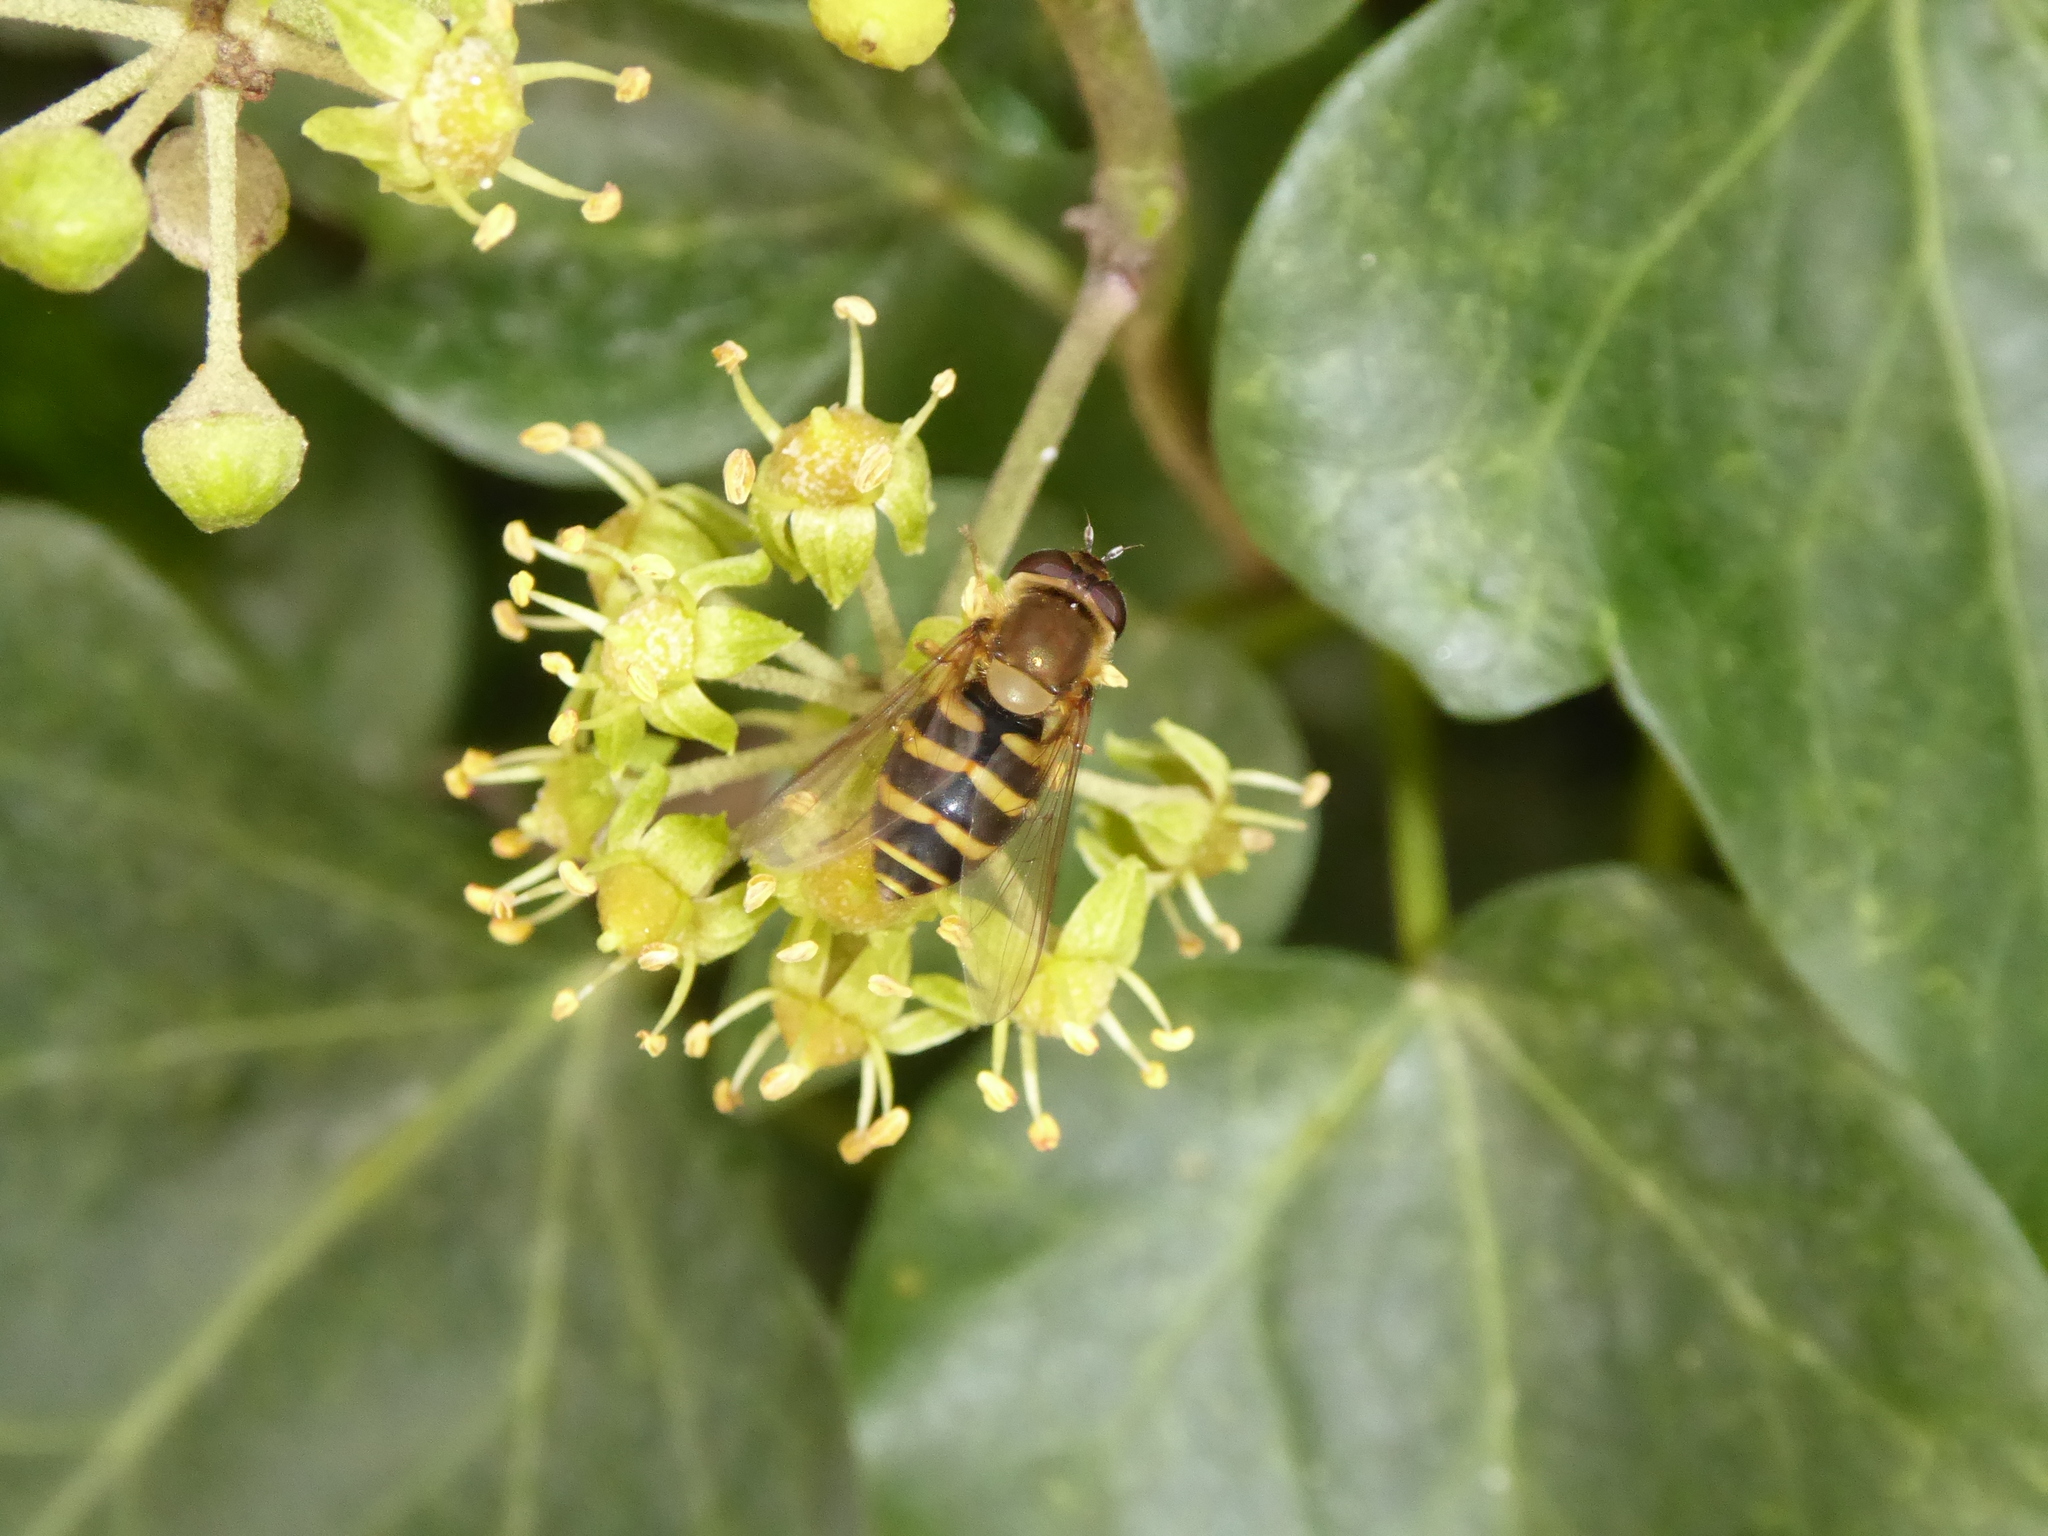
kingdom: Animalia
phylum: Arthropoda
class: Insecta
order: Diptera
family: Syrphidae
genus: Syrphus
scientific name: Syrphus
